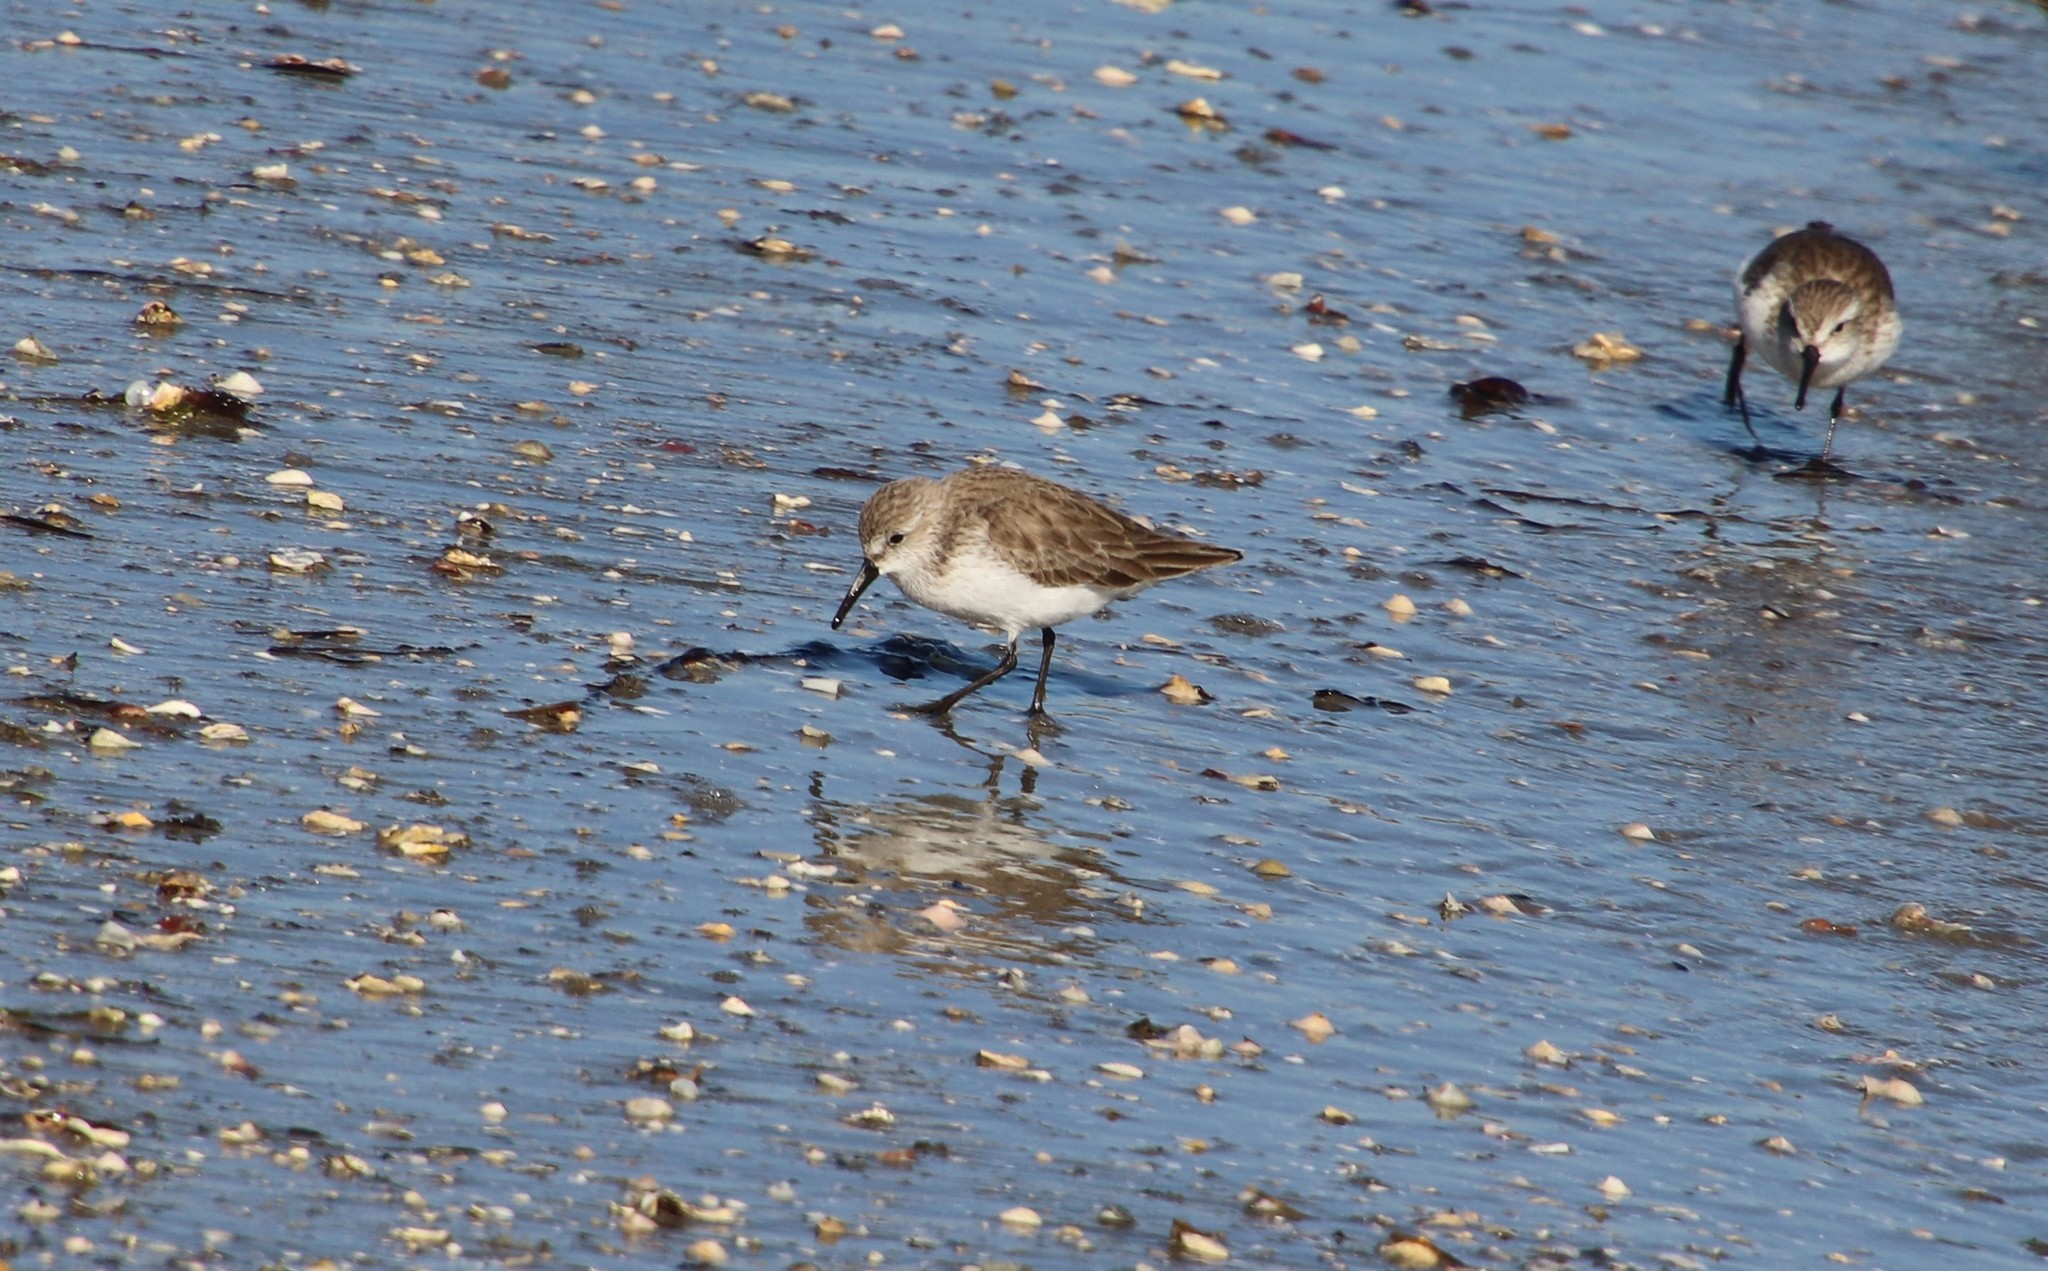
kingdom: Animalia
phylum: Chordata
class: Aves
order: Charadriiformes
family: Scolopacidae
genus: Calidris
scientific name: Calidris mauri
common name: Western sandpiper
